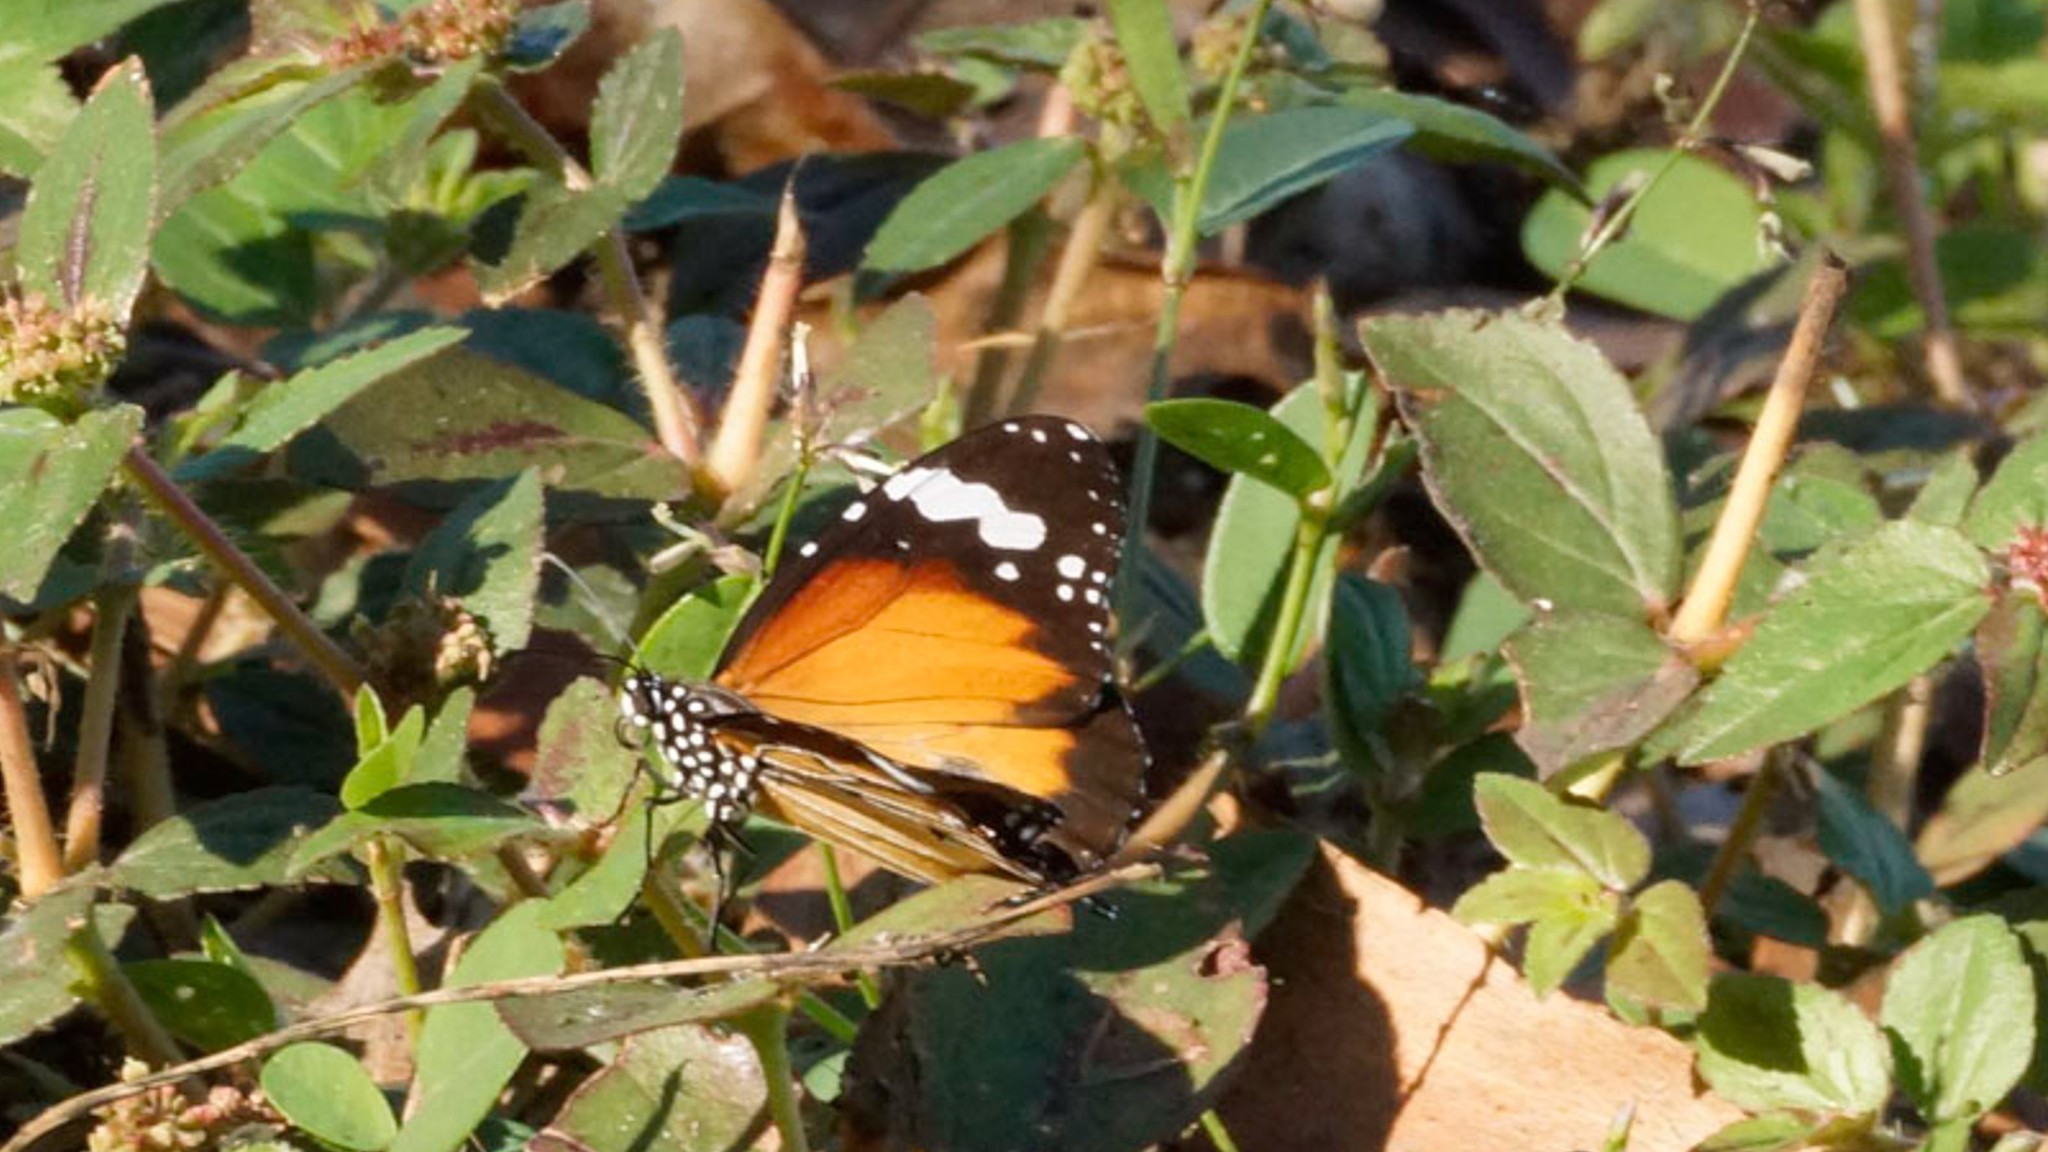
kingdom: Animalia
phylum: Arthropoda
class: Insecta
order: Lepidoptera
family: Nymphalidae
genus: Danaus
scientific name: Danaus chrysippus
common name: Plain tiger
